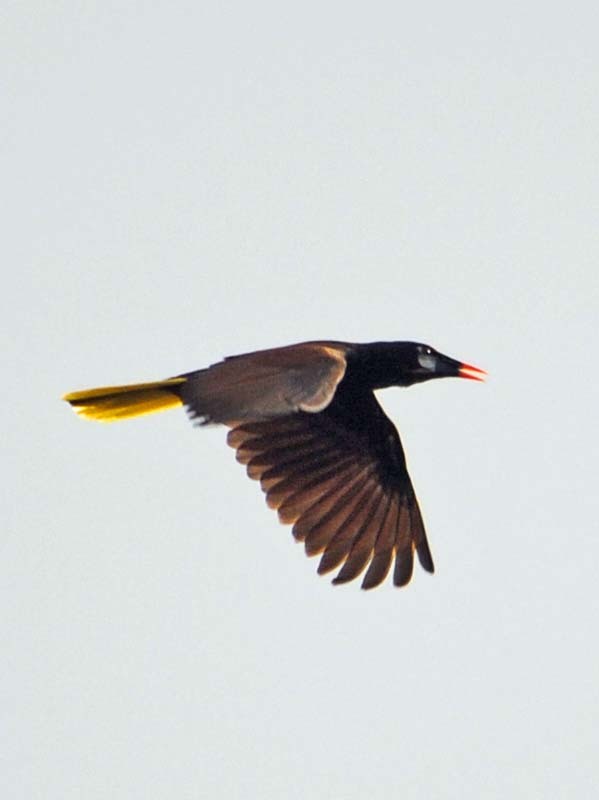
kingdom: Animalia
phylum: Chordata
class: Aves
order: Passeriformes
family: Icteridae
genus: Psarocolius
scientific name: Psarocolius montezuma
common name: Montezuma oropendola
